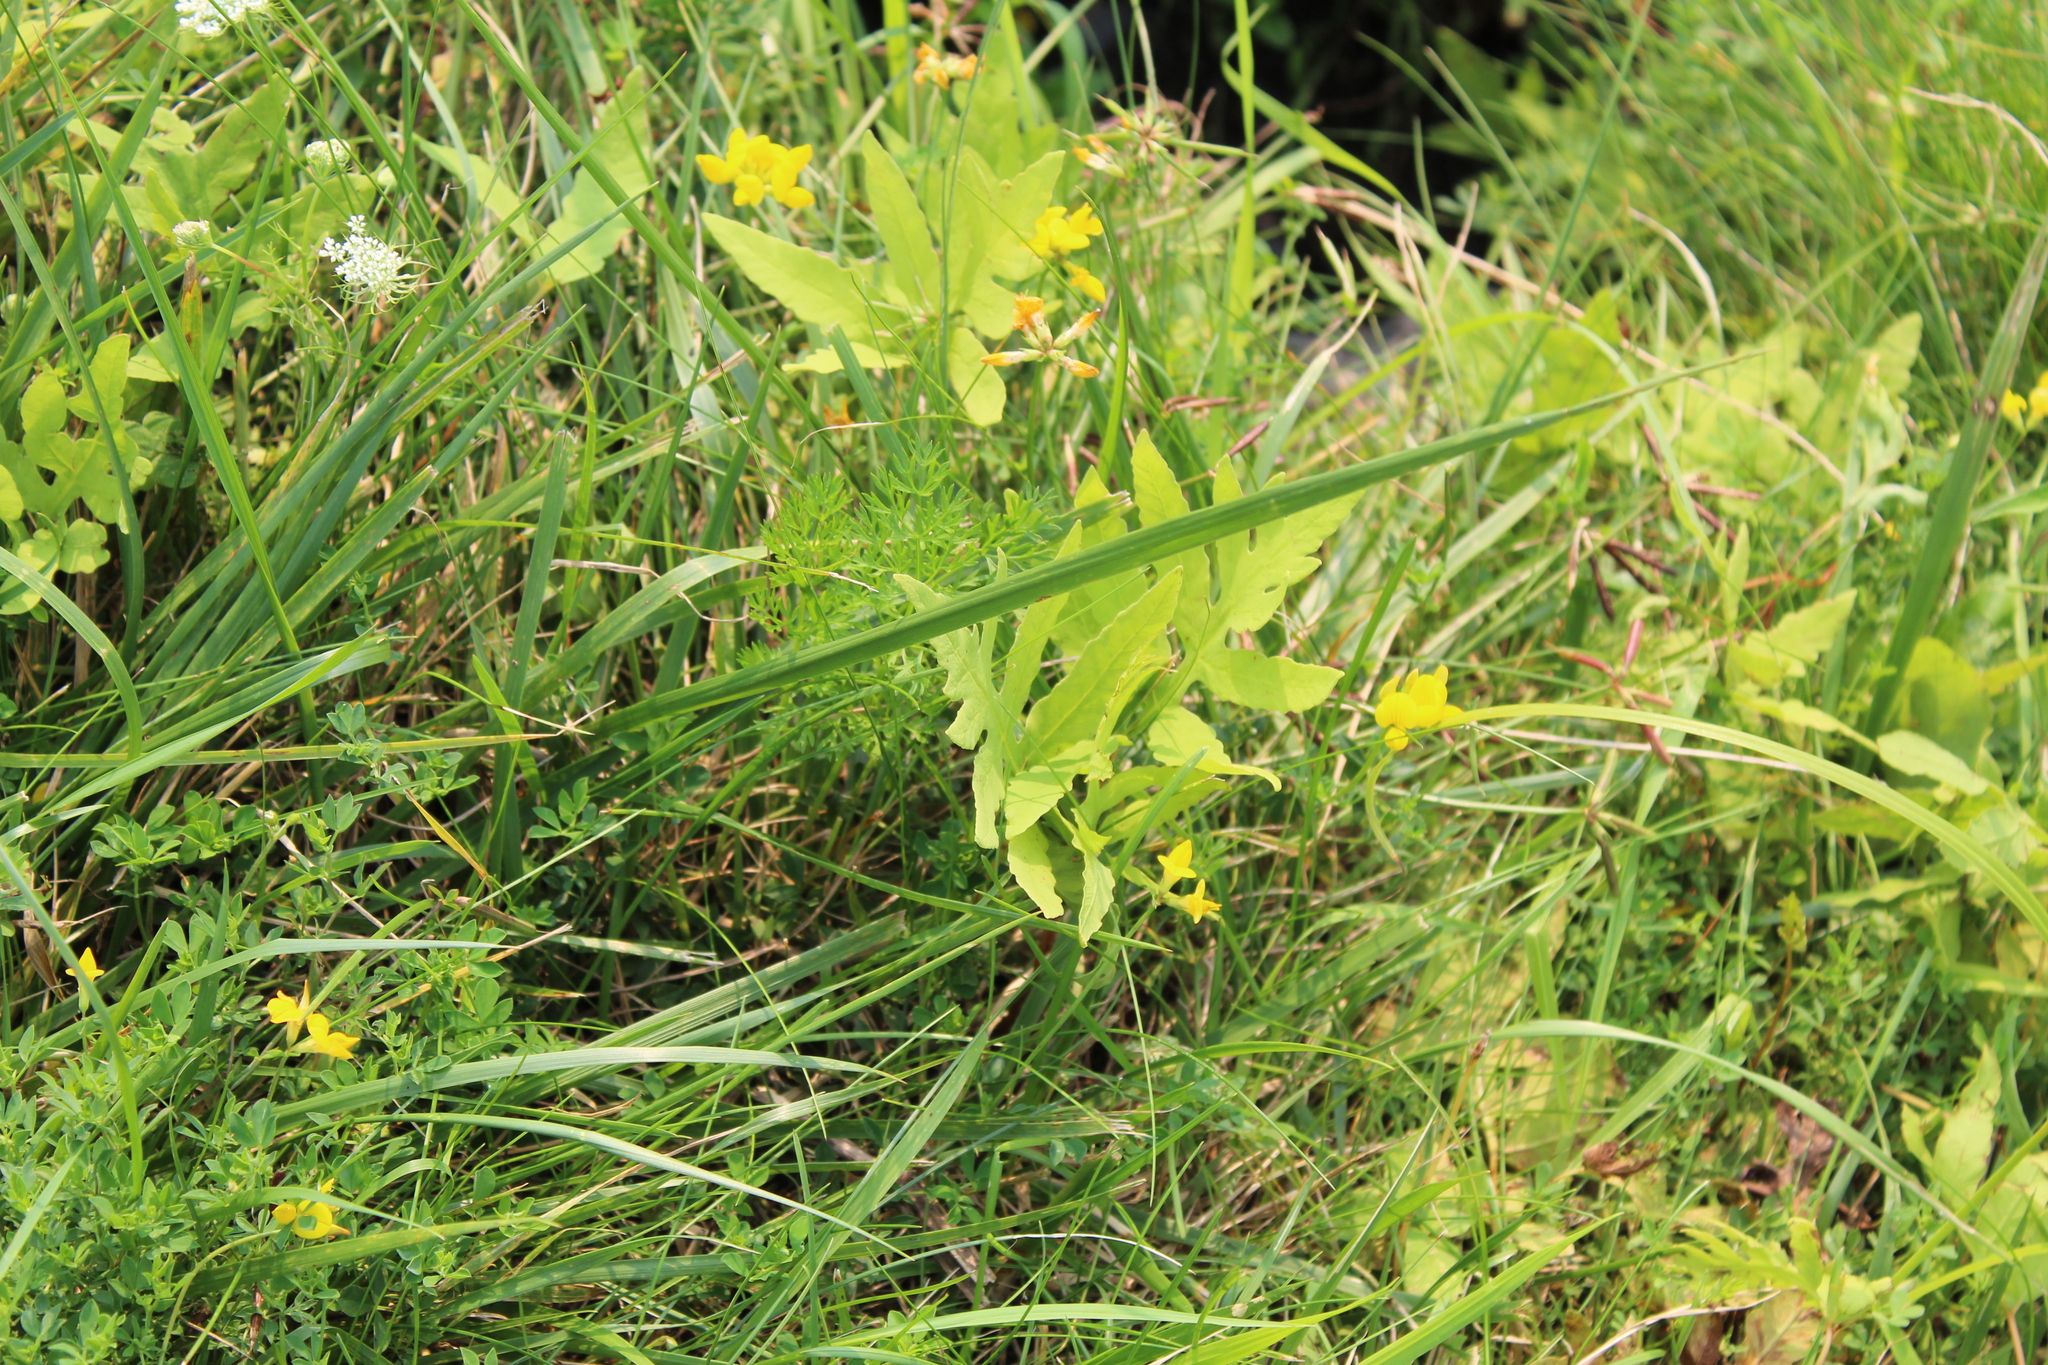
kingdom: Plantae
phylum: Tracheophyta
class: Polypodiopsida
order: Polypodiales
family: Onocleaceae
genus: Onoclea
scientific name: Onoclea sensibilis
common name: Sensitive fern
